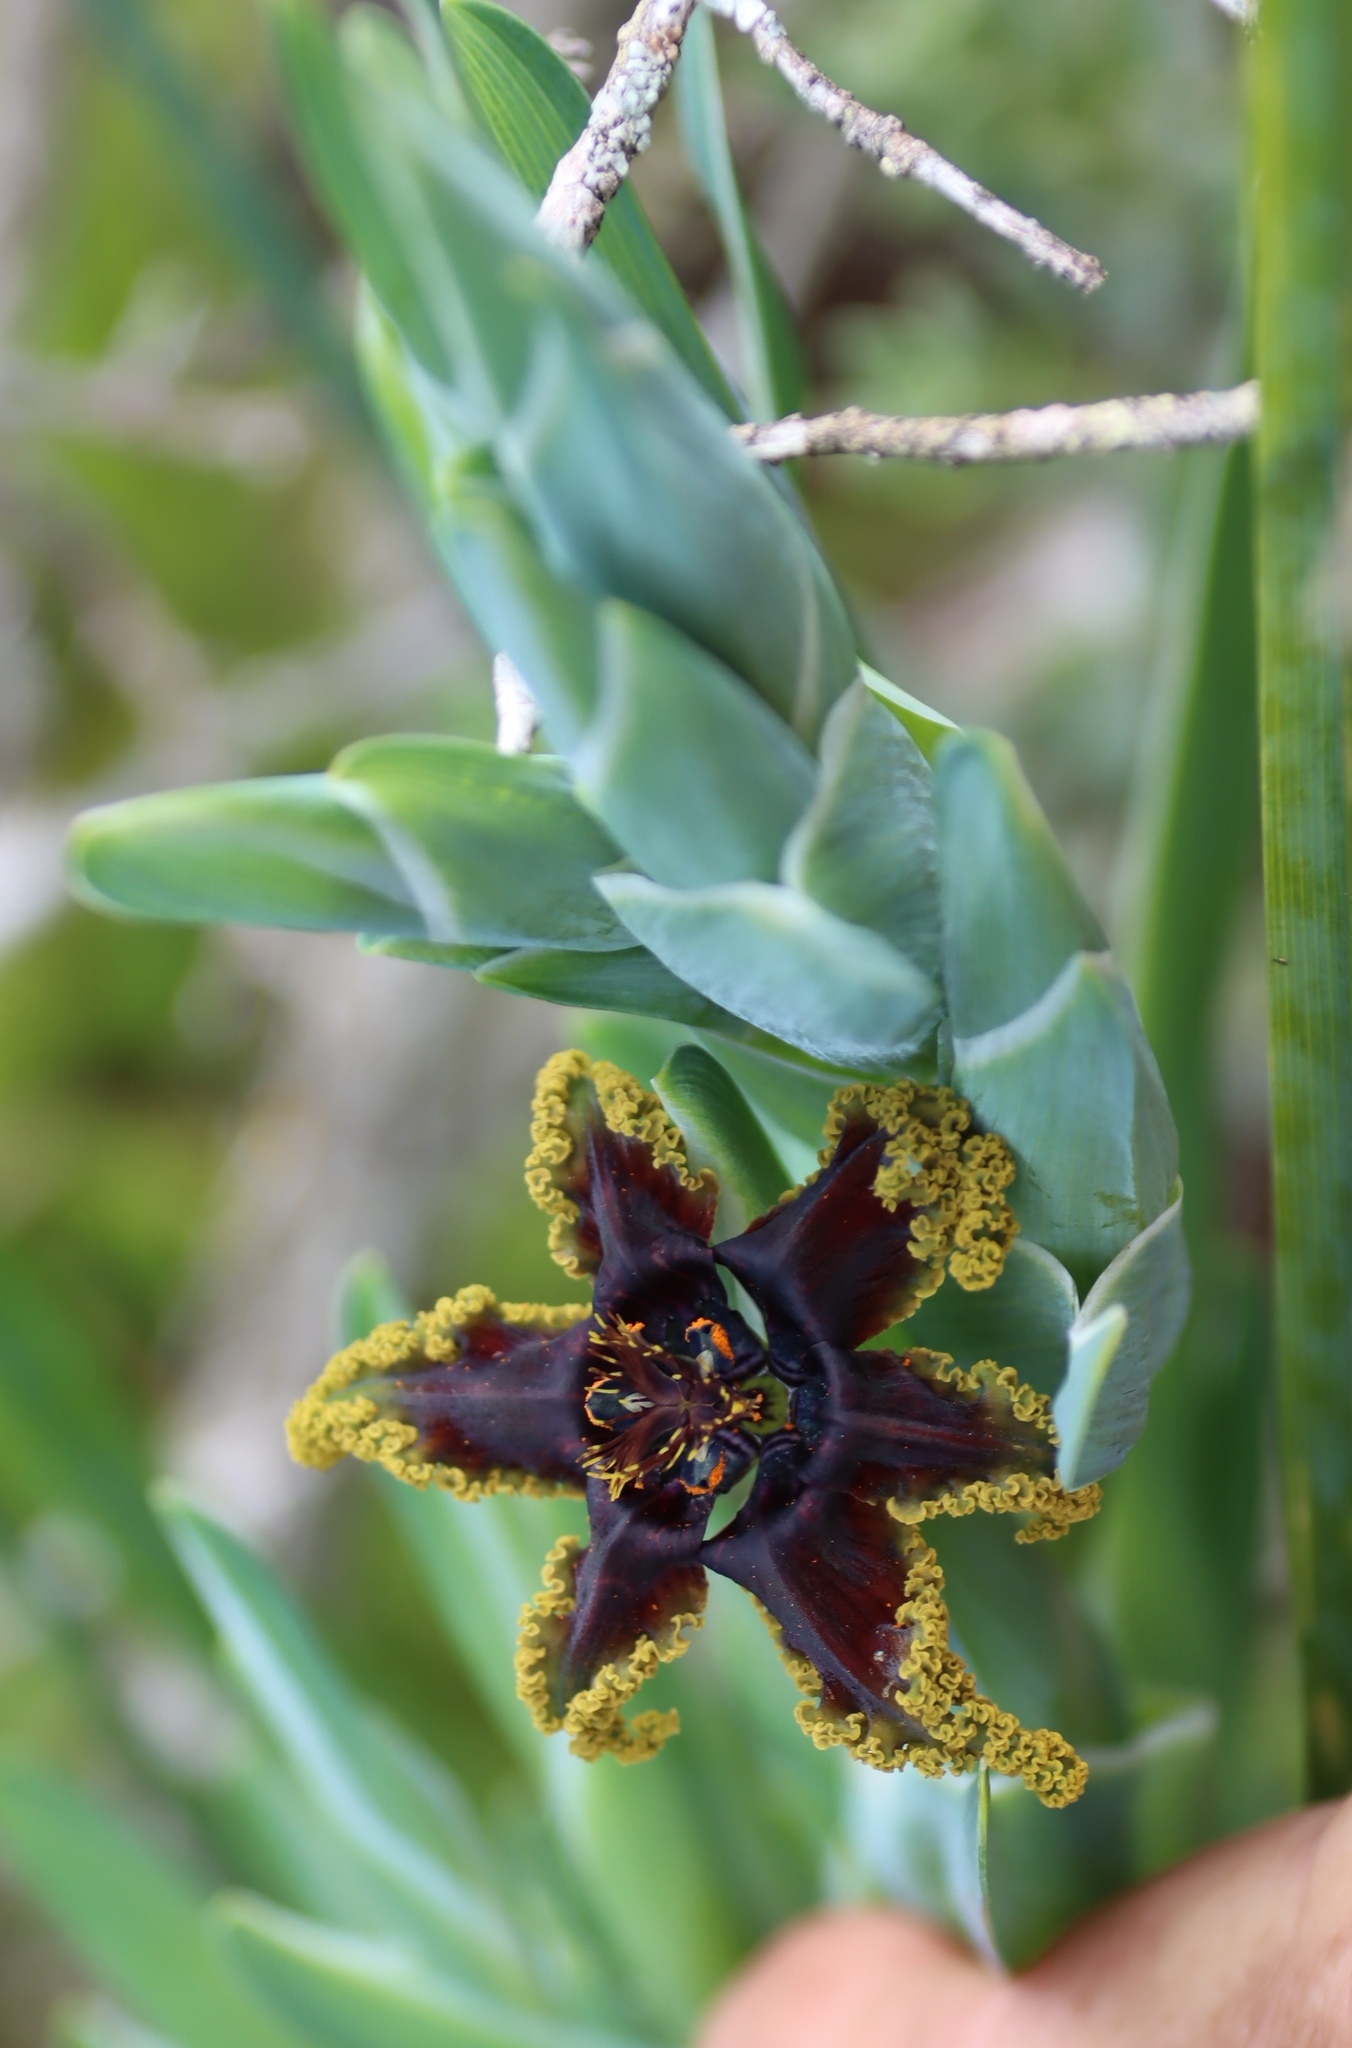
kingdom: Plantae
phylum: Tracheophyta
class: Liliopsida
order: Asparagales
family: Iridaceae
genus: Ferraria
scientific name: Ferraria crispa
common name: Black-flag
